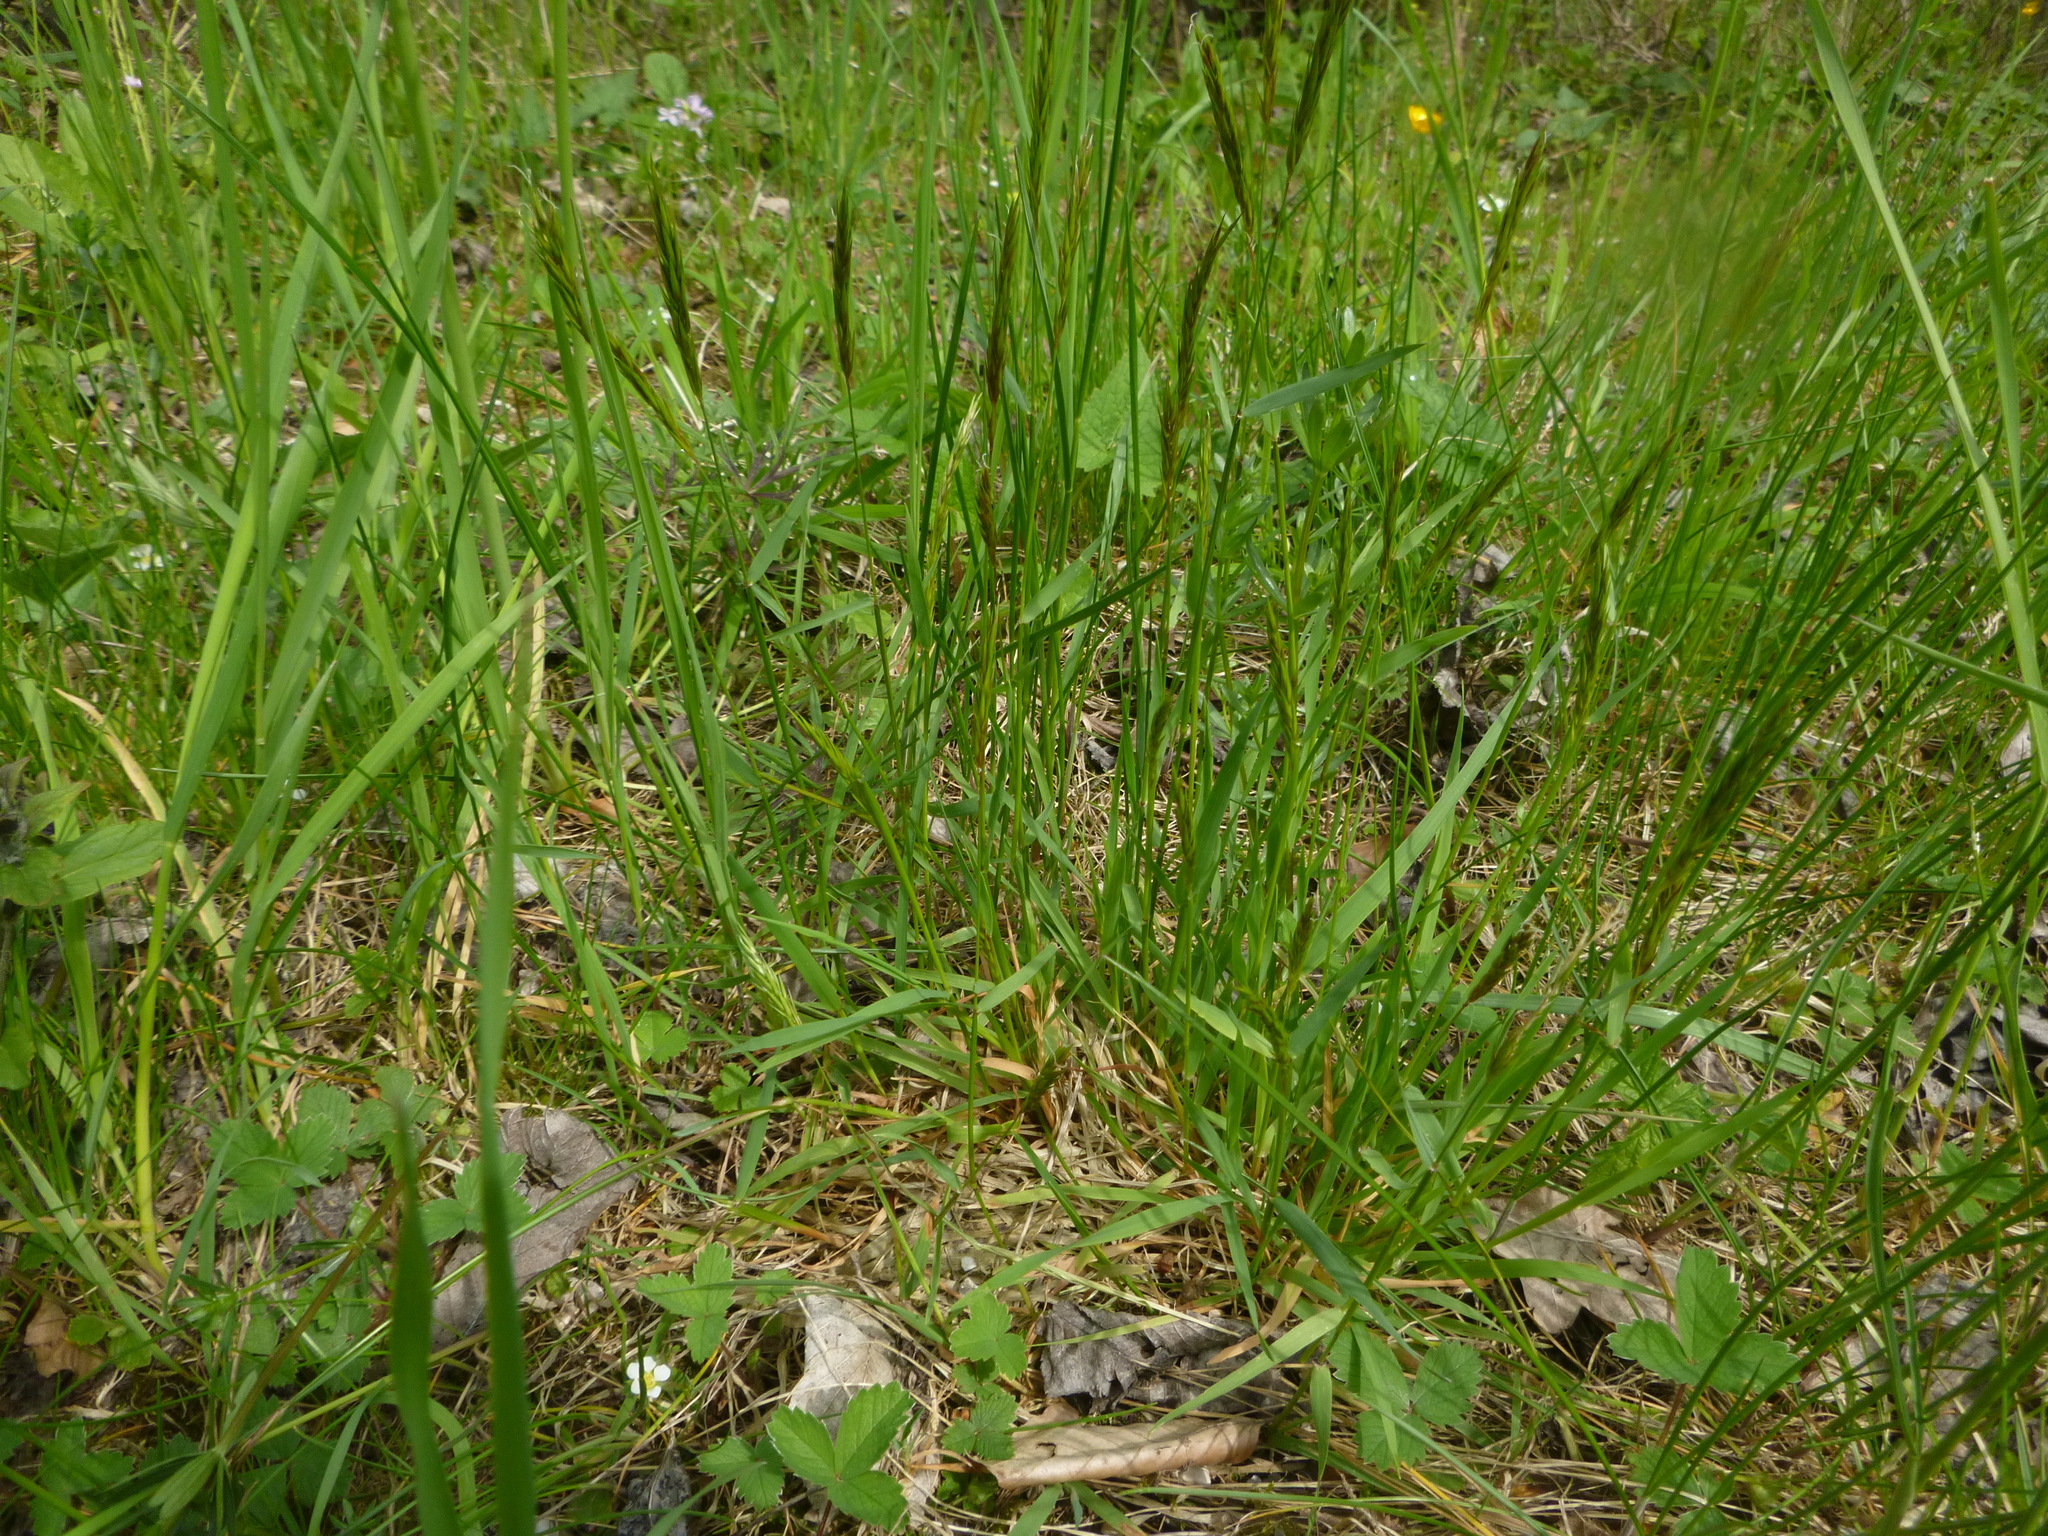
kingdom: Plantae
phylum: Tracheophyta
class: Liliopsida
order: Poales
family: Poaceae
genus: Anthoxanthum
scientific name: Anthoxanthum odoratum
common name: Sweet vernalgrass
